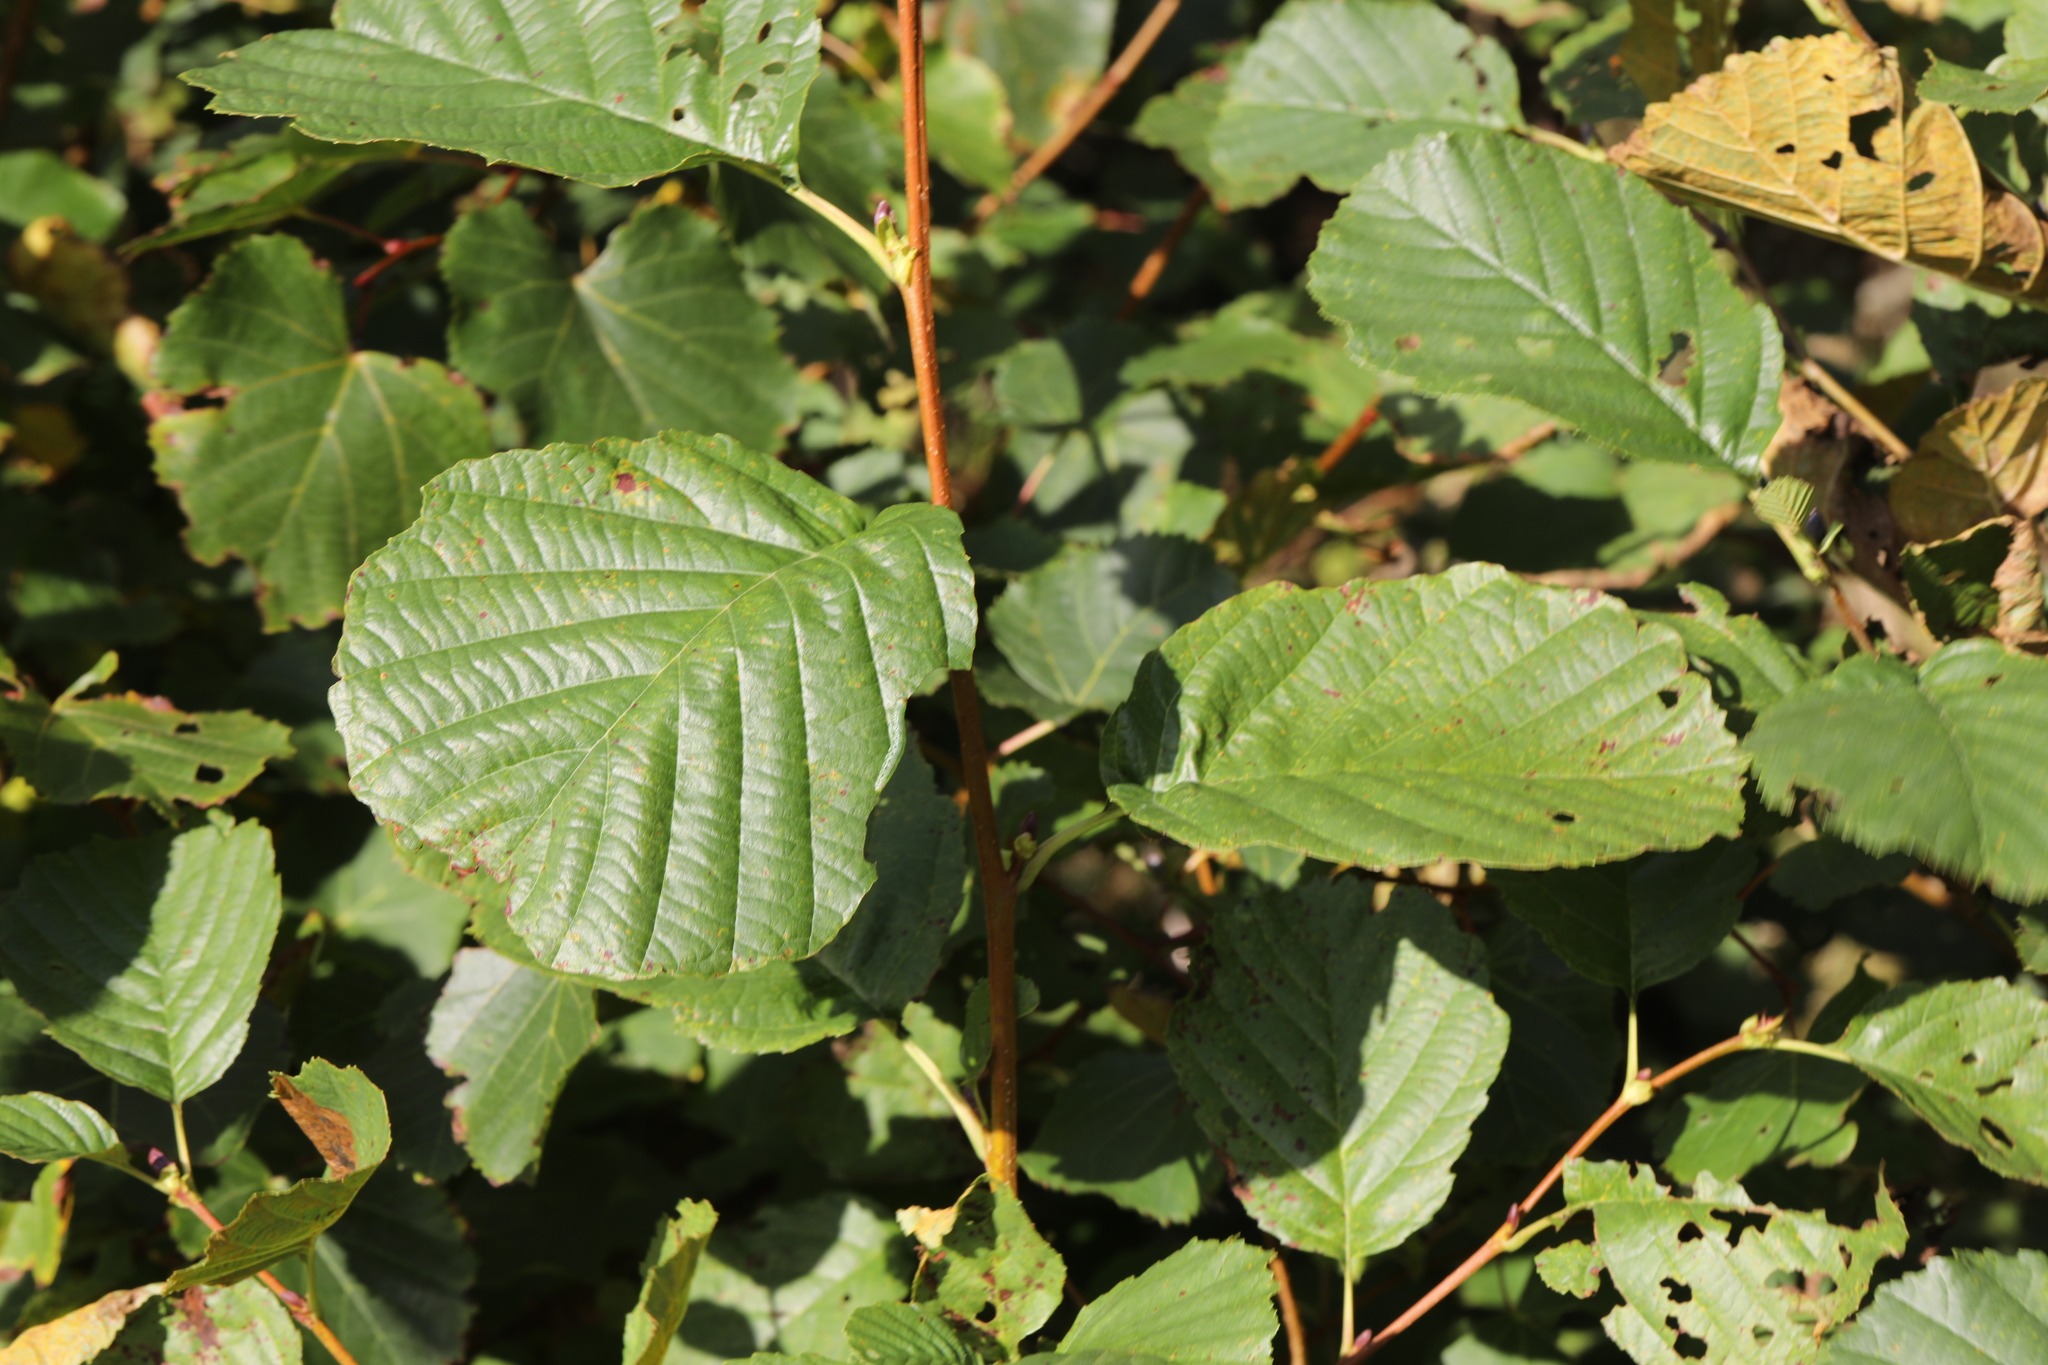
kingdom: Plantae
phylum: Tracheophyta
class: Magnoliopsida
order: Fagales
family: Betulaceae
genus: Alnus
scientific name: Alnus glutinosa
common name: Black alder
